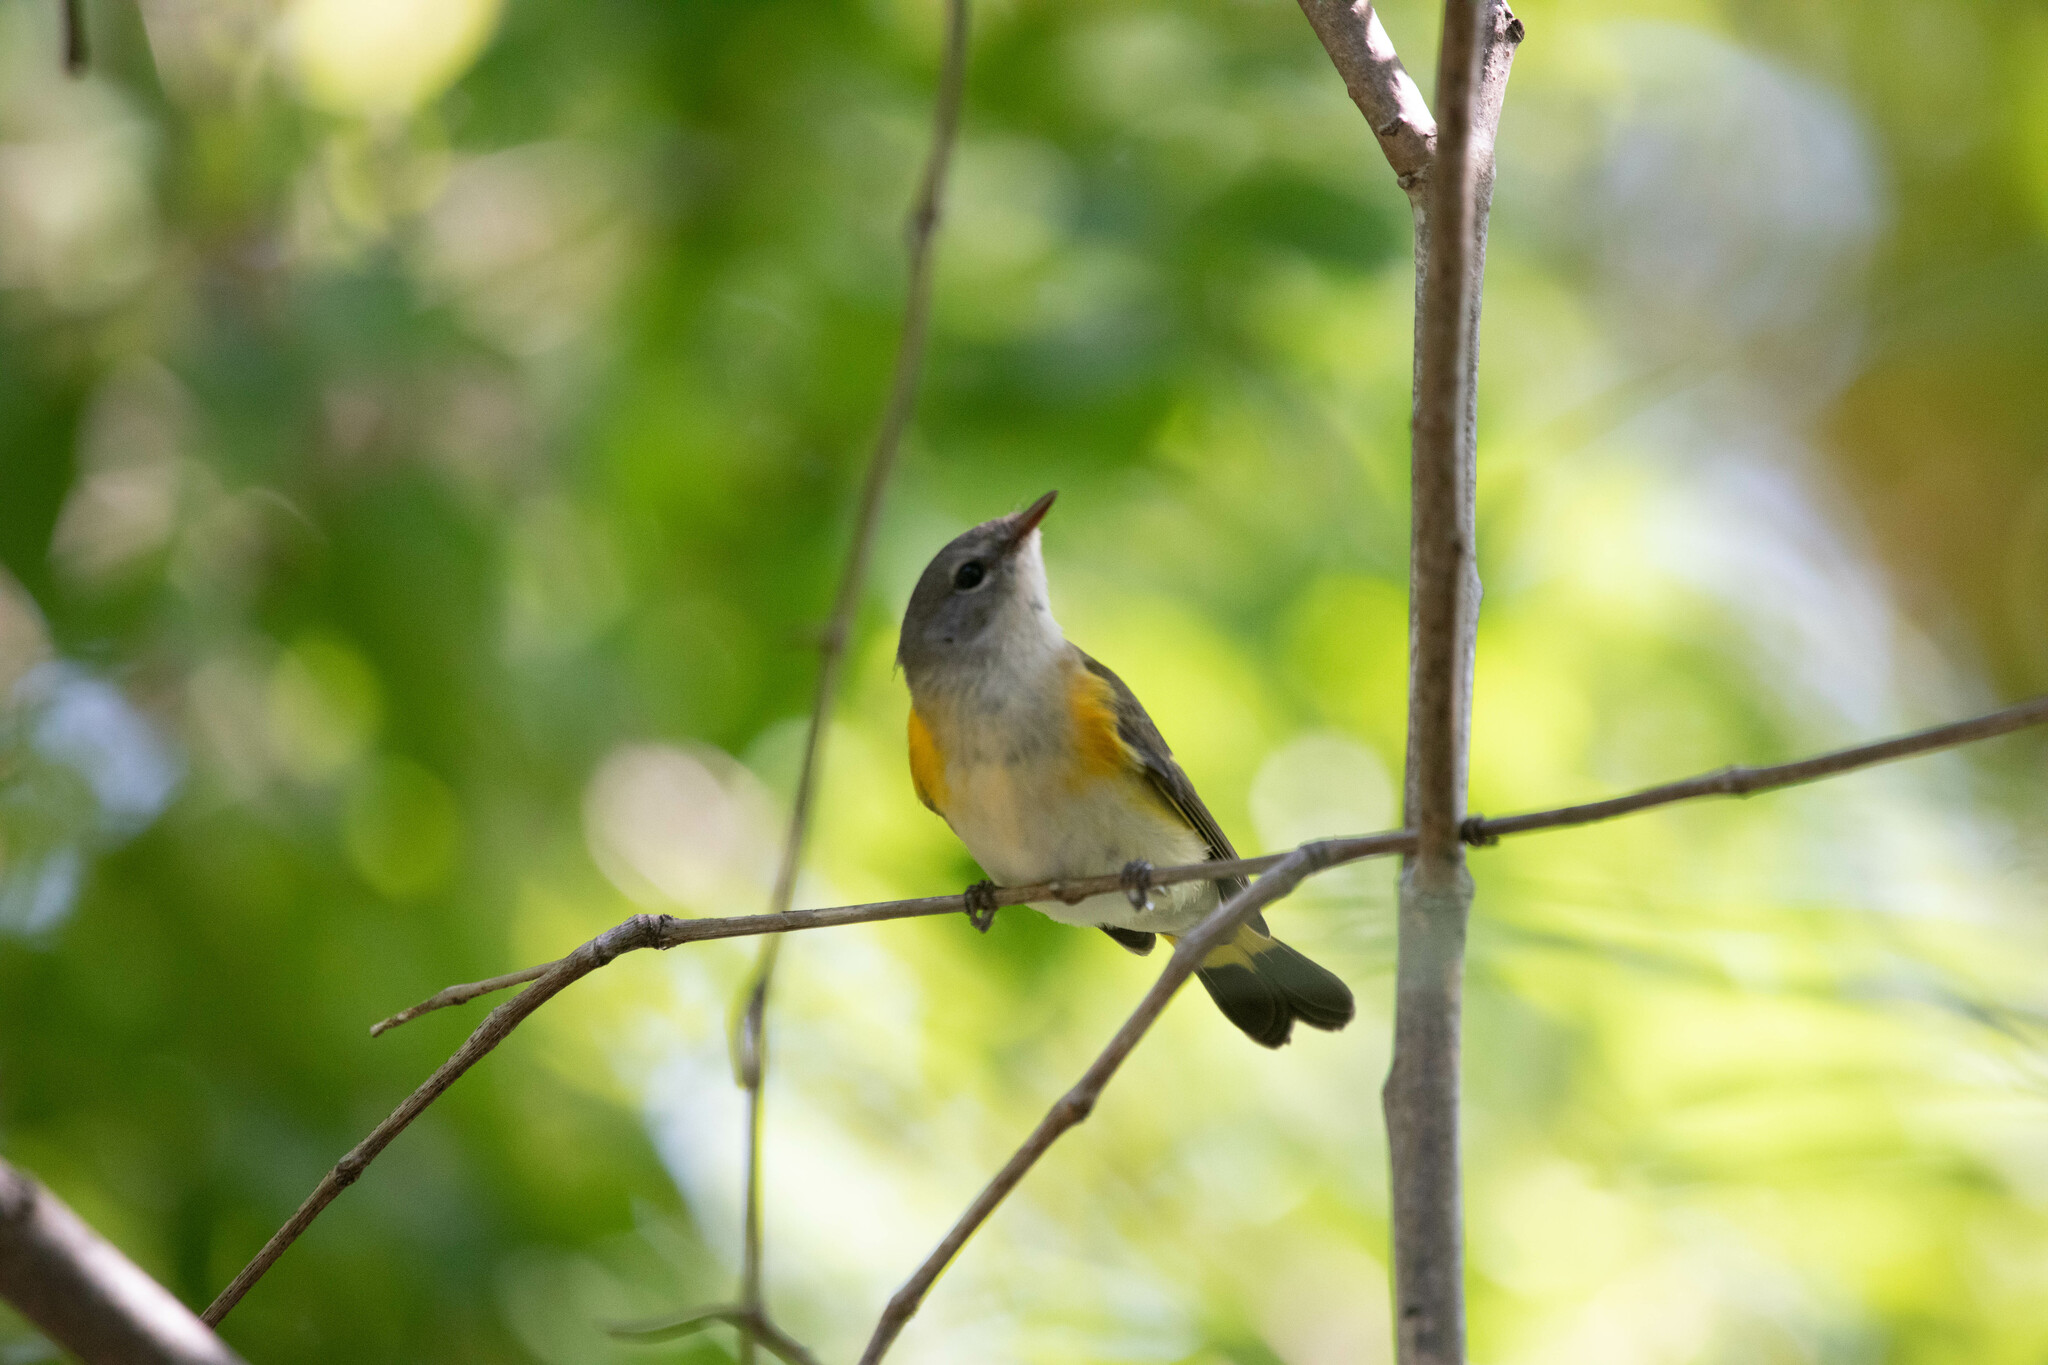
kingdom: Animalia
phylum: Chordata
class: Aves
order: Passeriformes
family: Parulidae
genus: Setophaga
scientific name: Setophaga ruticilla
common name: American redstart
